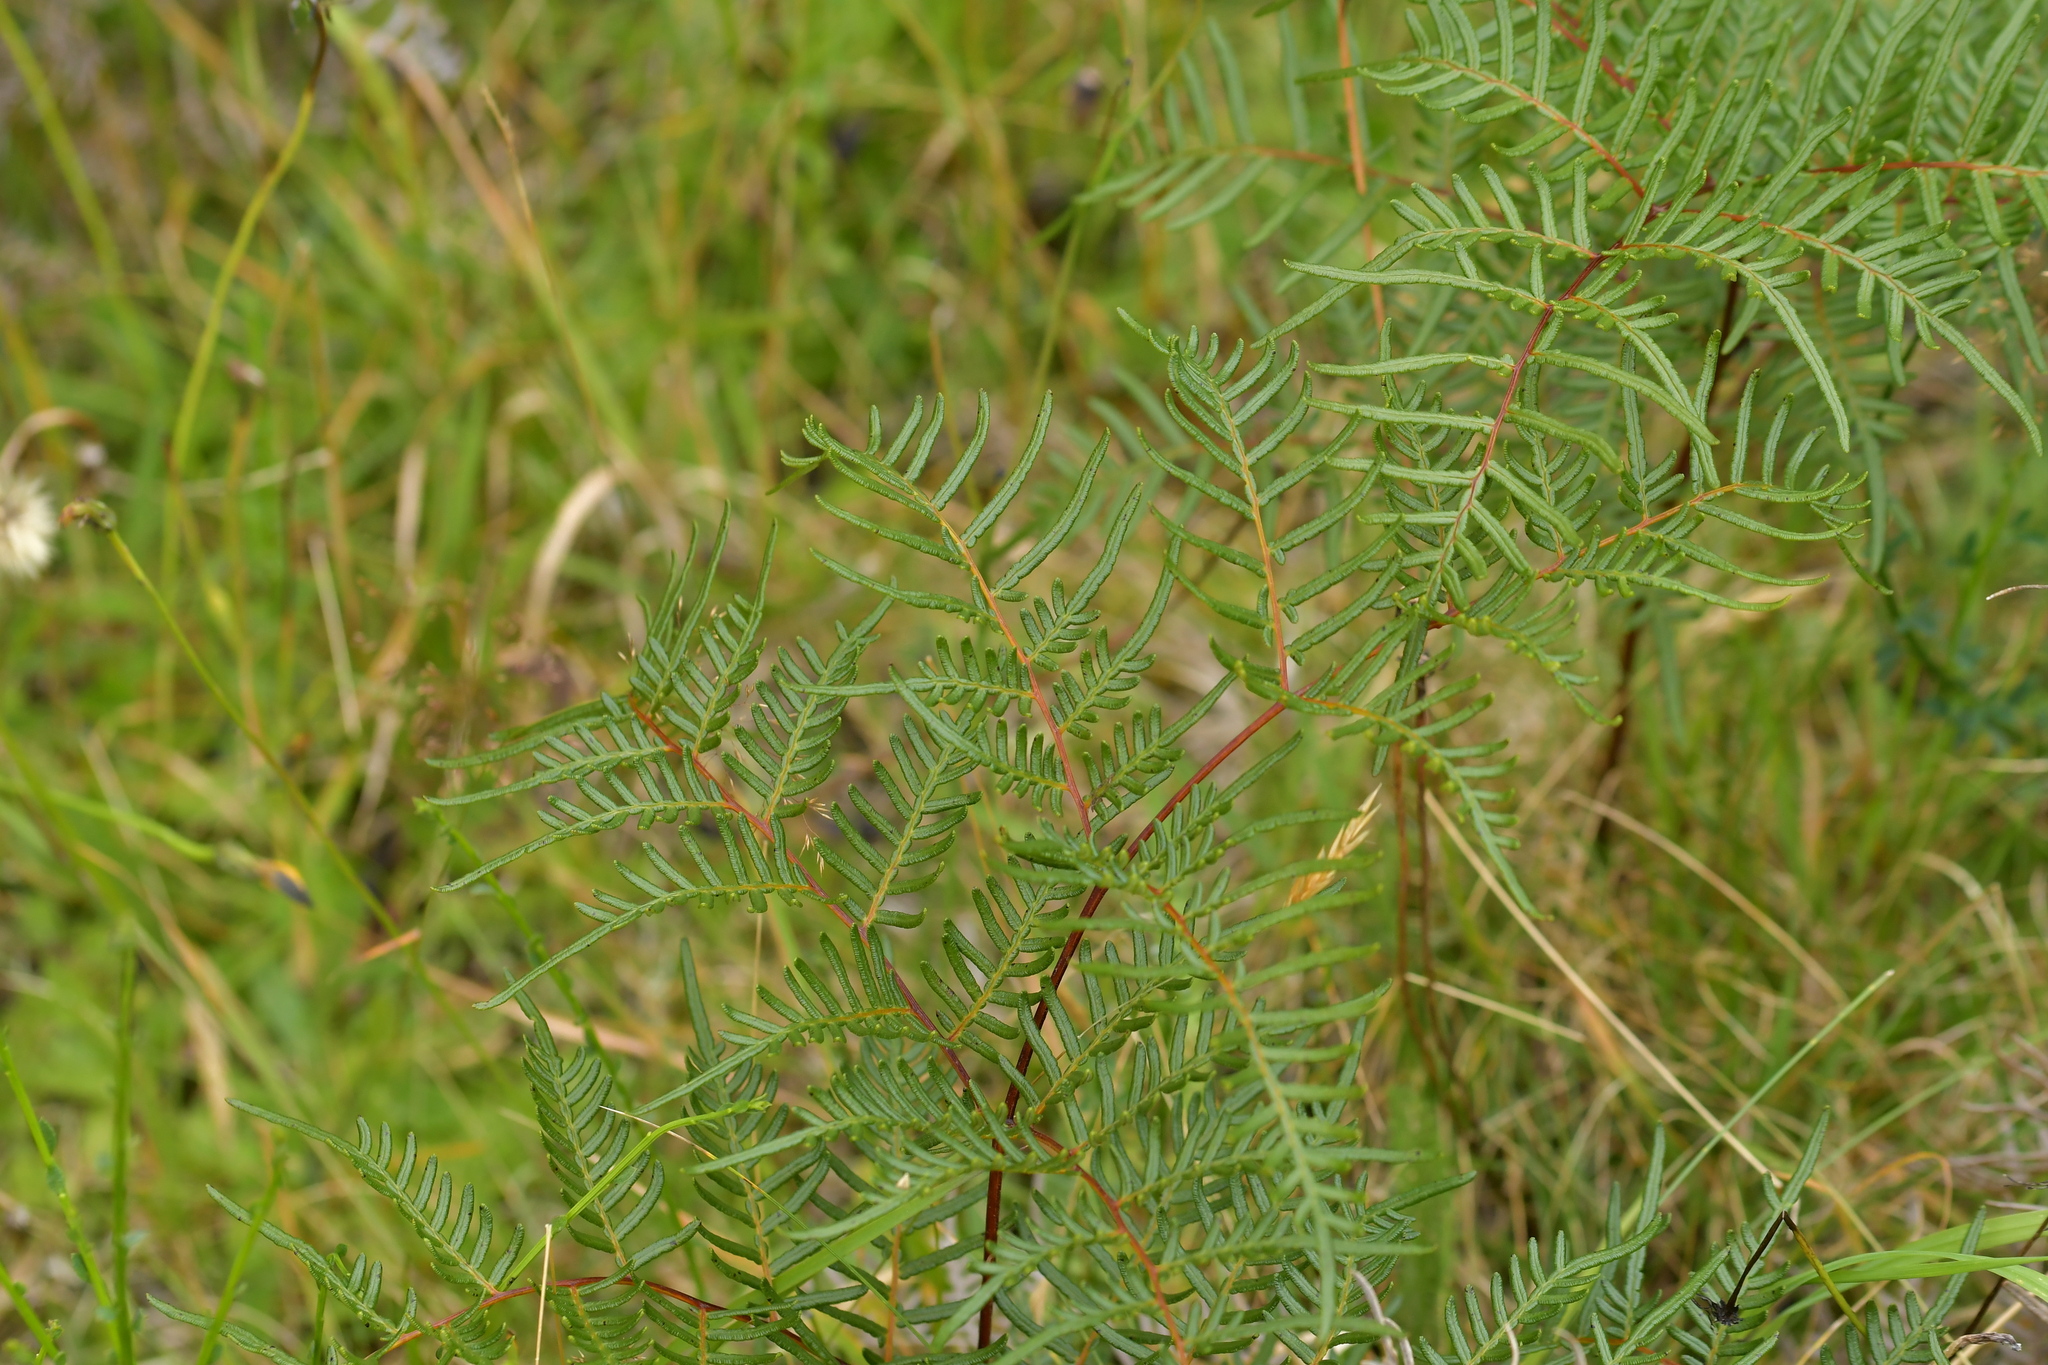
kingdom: Plantae
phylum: Tracheophyta
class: Polypodiopsida
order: Polypodiales
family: Dennstaedtiaceae
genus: Pteridium
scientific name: Pteridium esculentum
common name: Bracken fern
